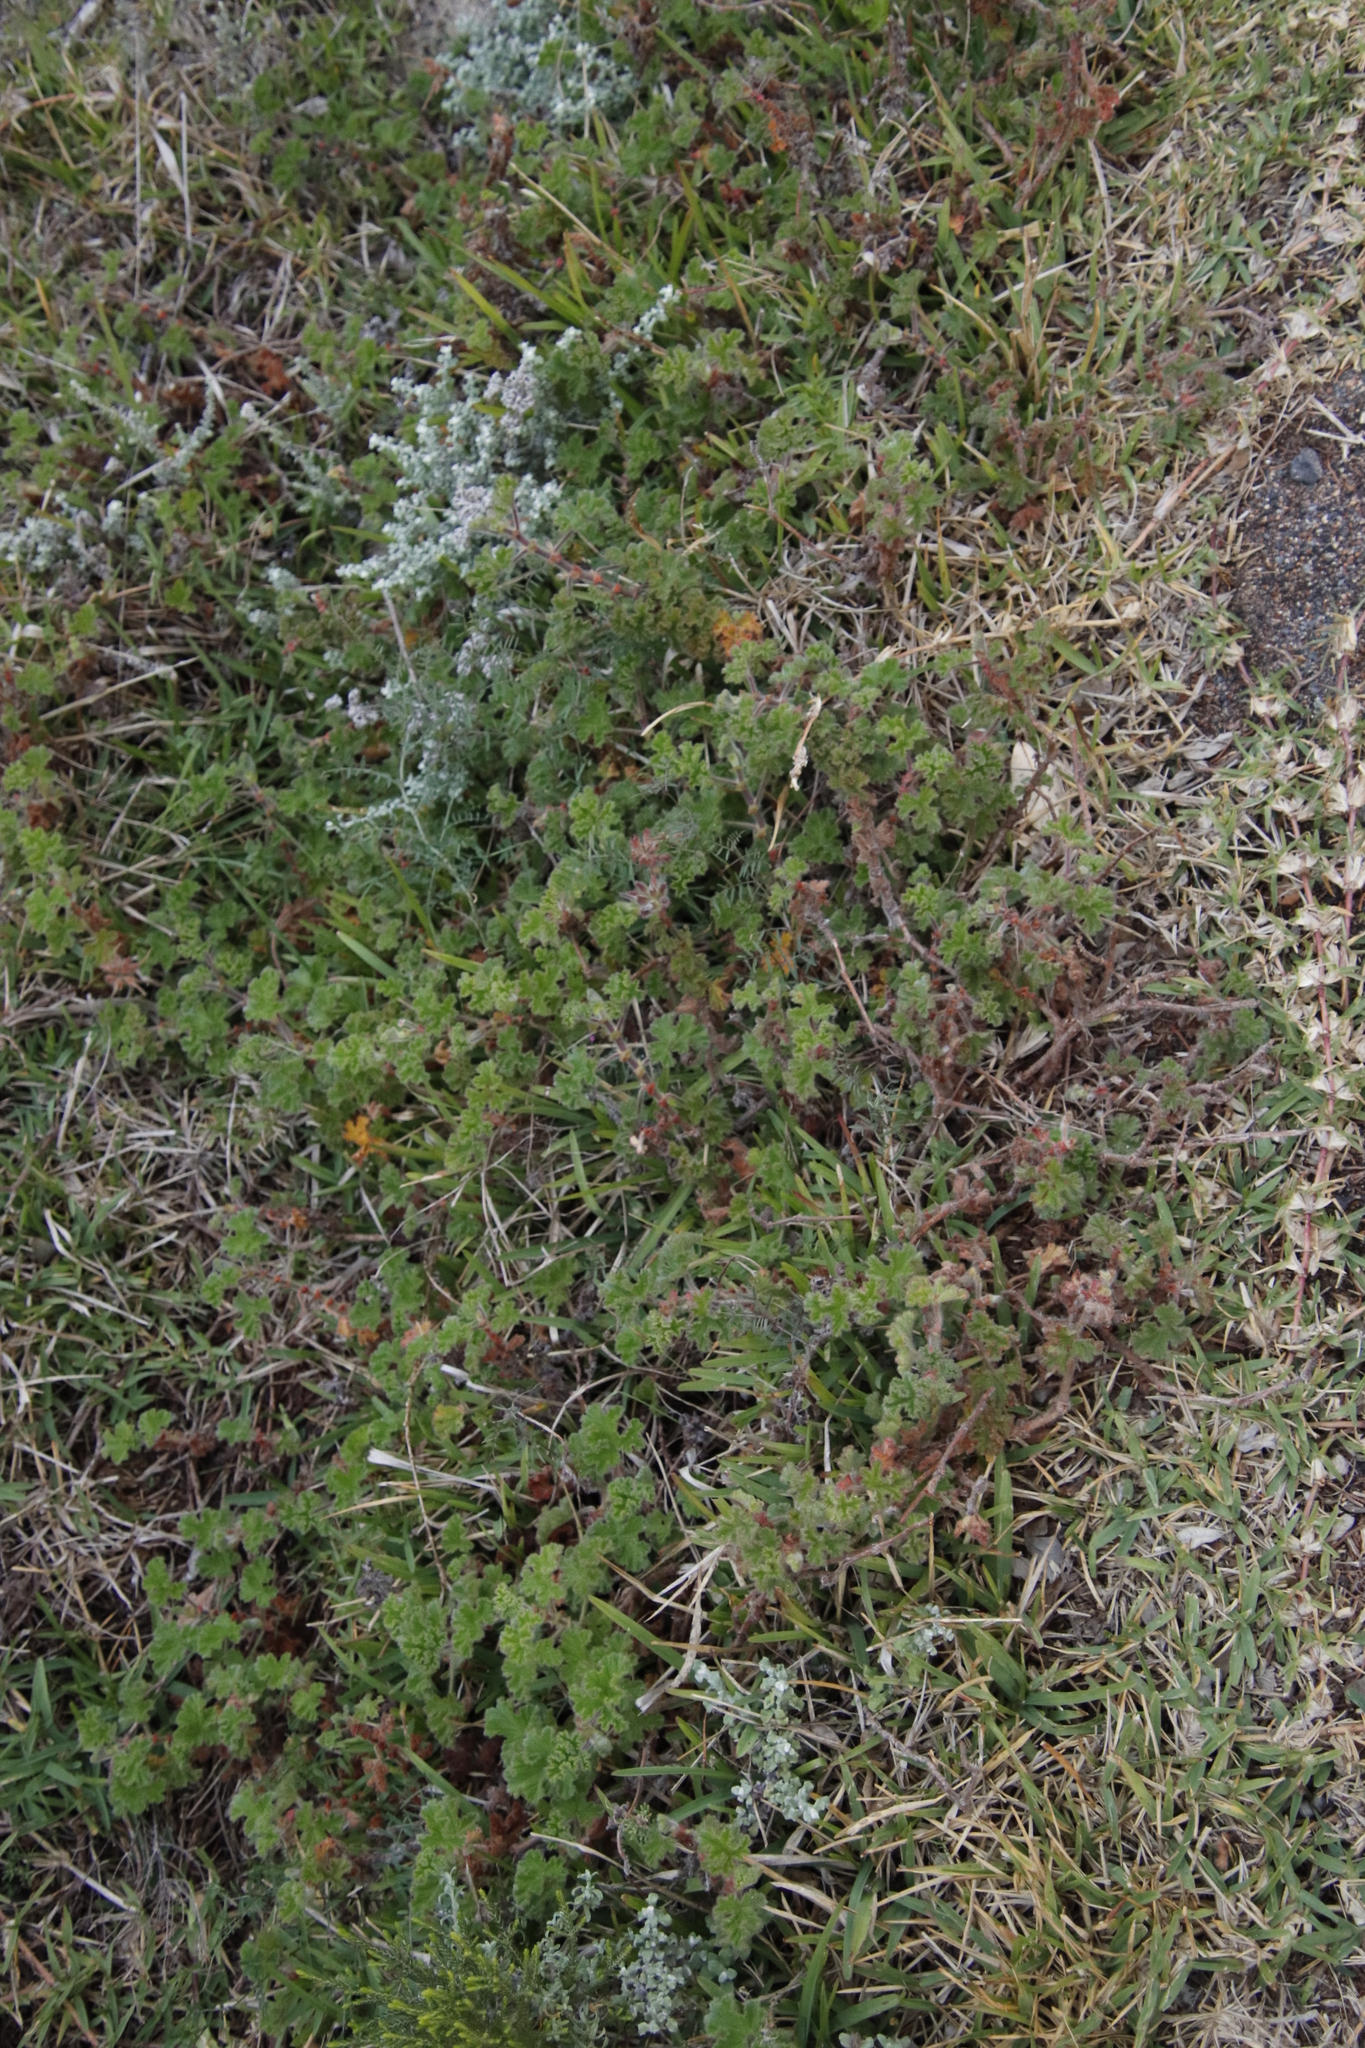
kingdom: Plantae
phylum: Tracheophyta
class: Magnoliopsida
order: Geraniales
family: Geraniaceae
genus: Pelargonium
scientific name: Pelargonium capitatum
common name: Rose scented geranium
